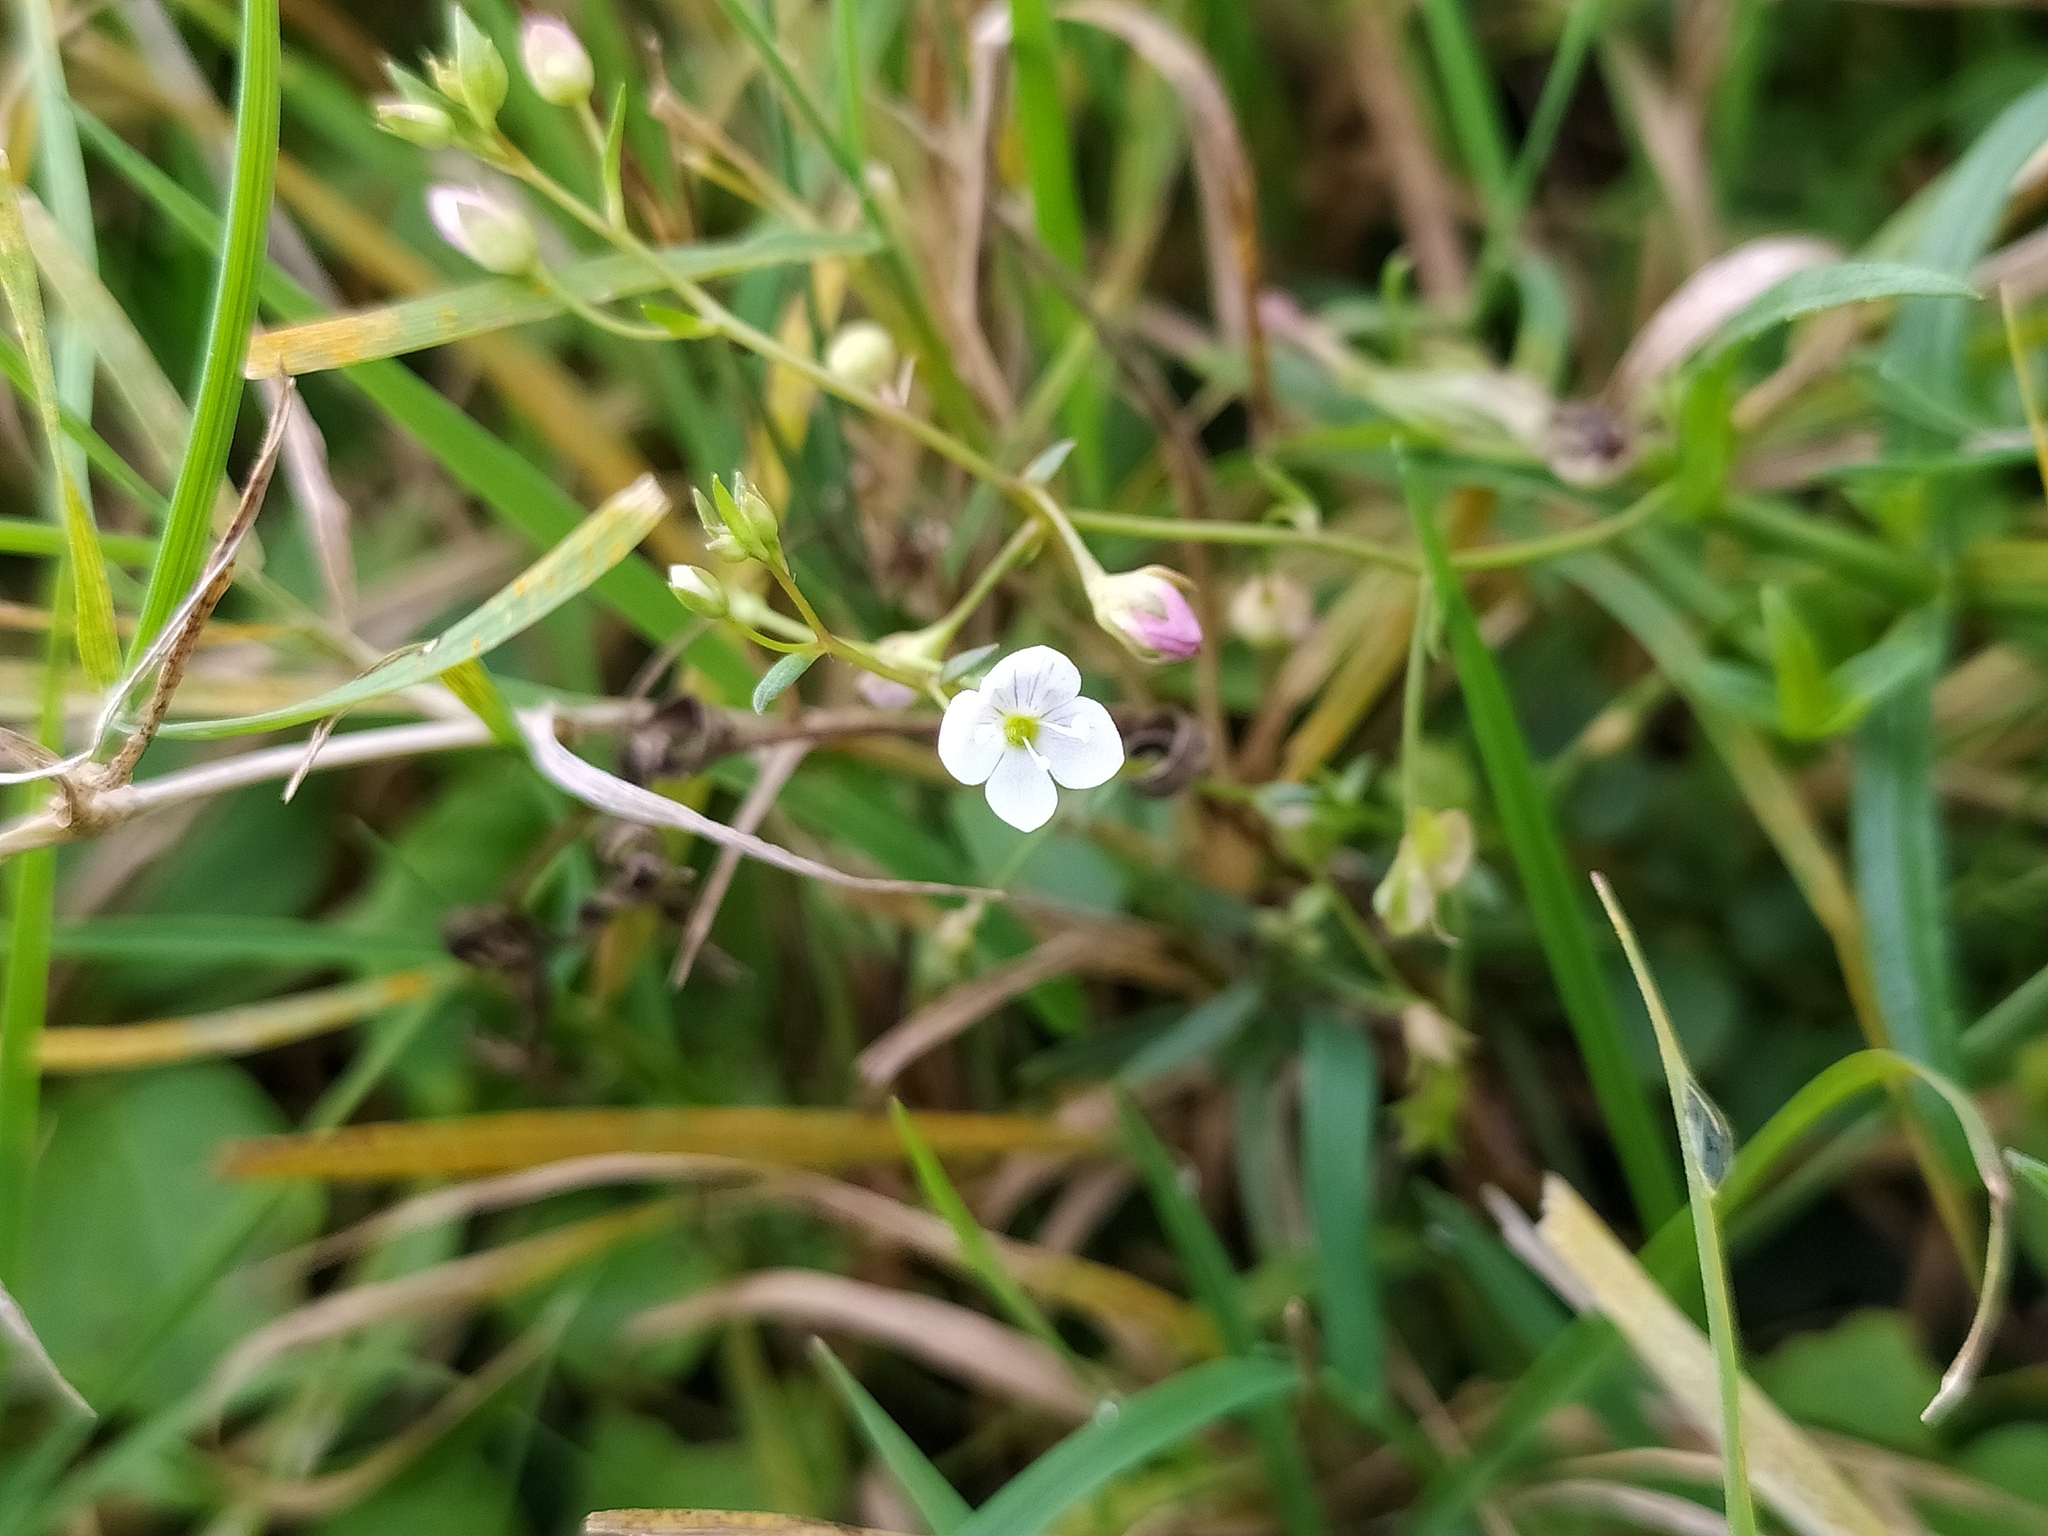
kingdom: Plantae
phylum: Tracheophyta
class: Magnoliopsida
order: Lamiales
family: Plantaginaceae
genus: Veronica
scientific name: Veronica scutellata
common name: Marsh speedwell
